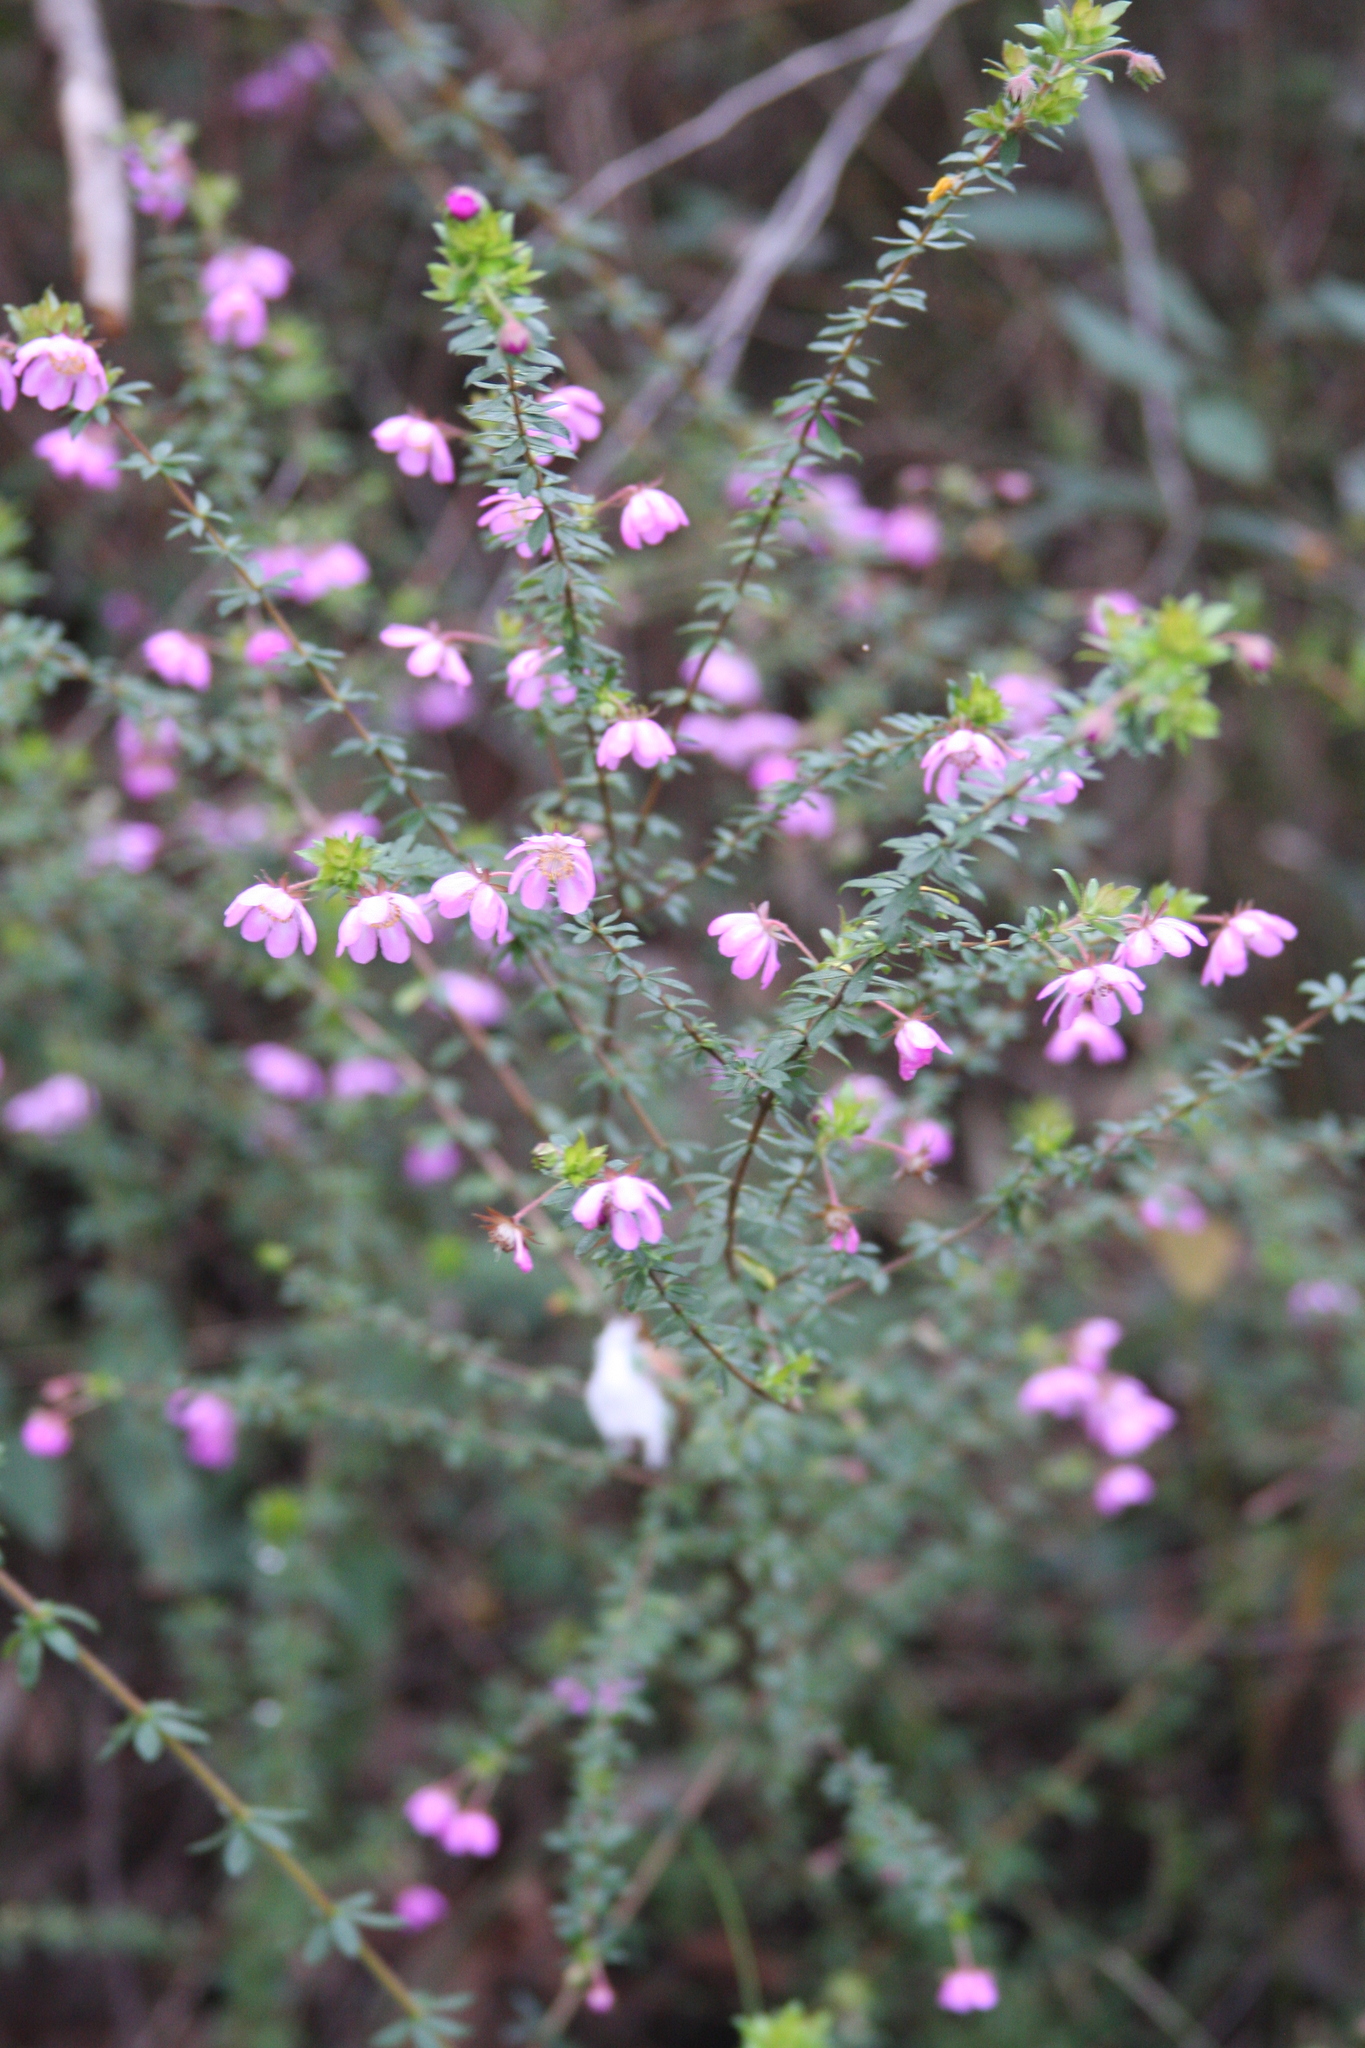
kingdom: Plantae
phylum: Tracheophyta
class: Magnoliopsida
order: Oxalidales
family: Cunoniaceae
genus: Bauera
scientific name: Bauera rubioides
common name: River-rose
